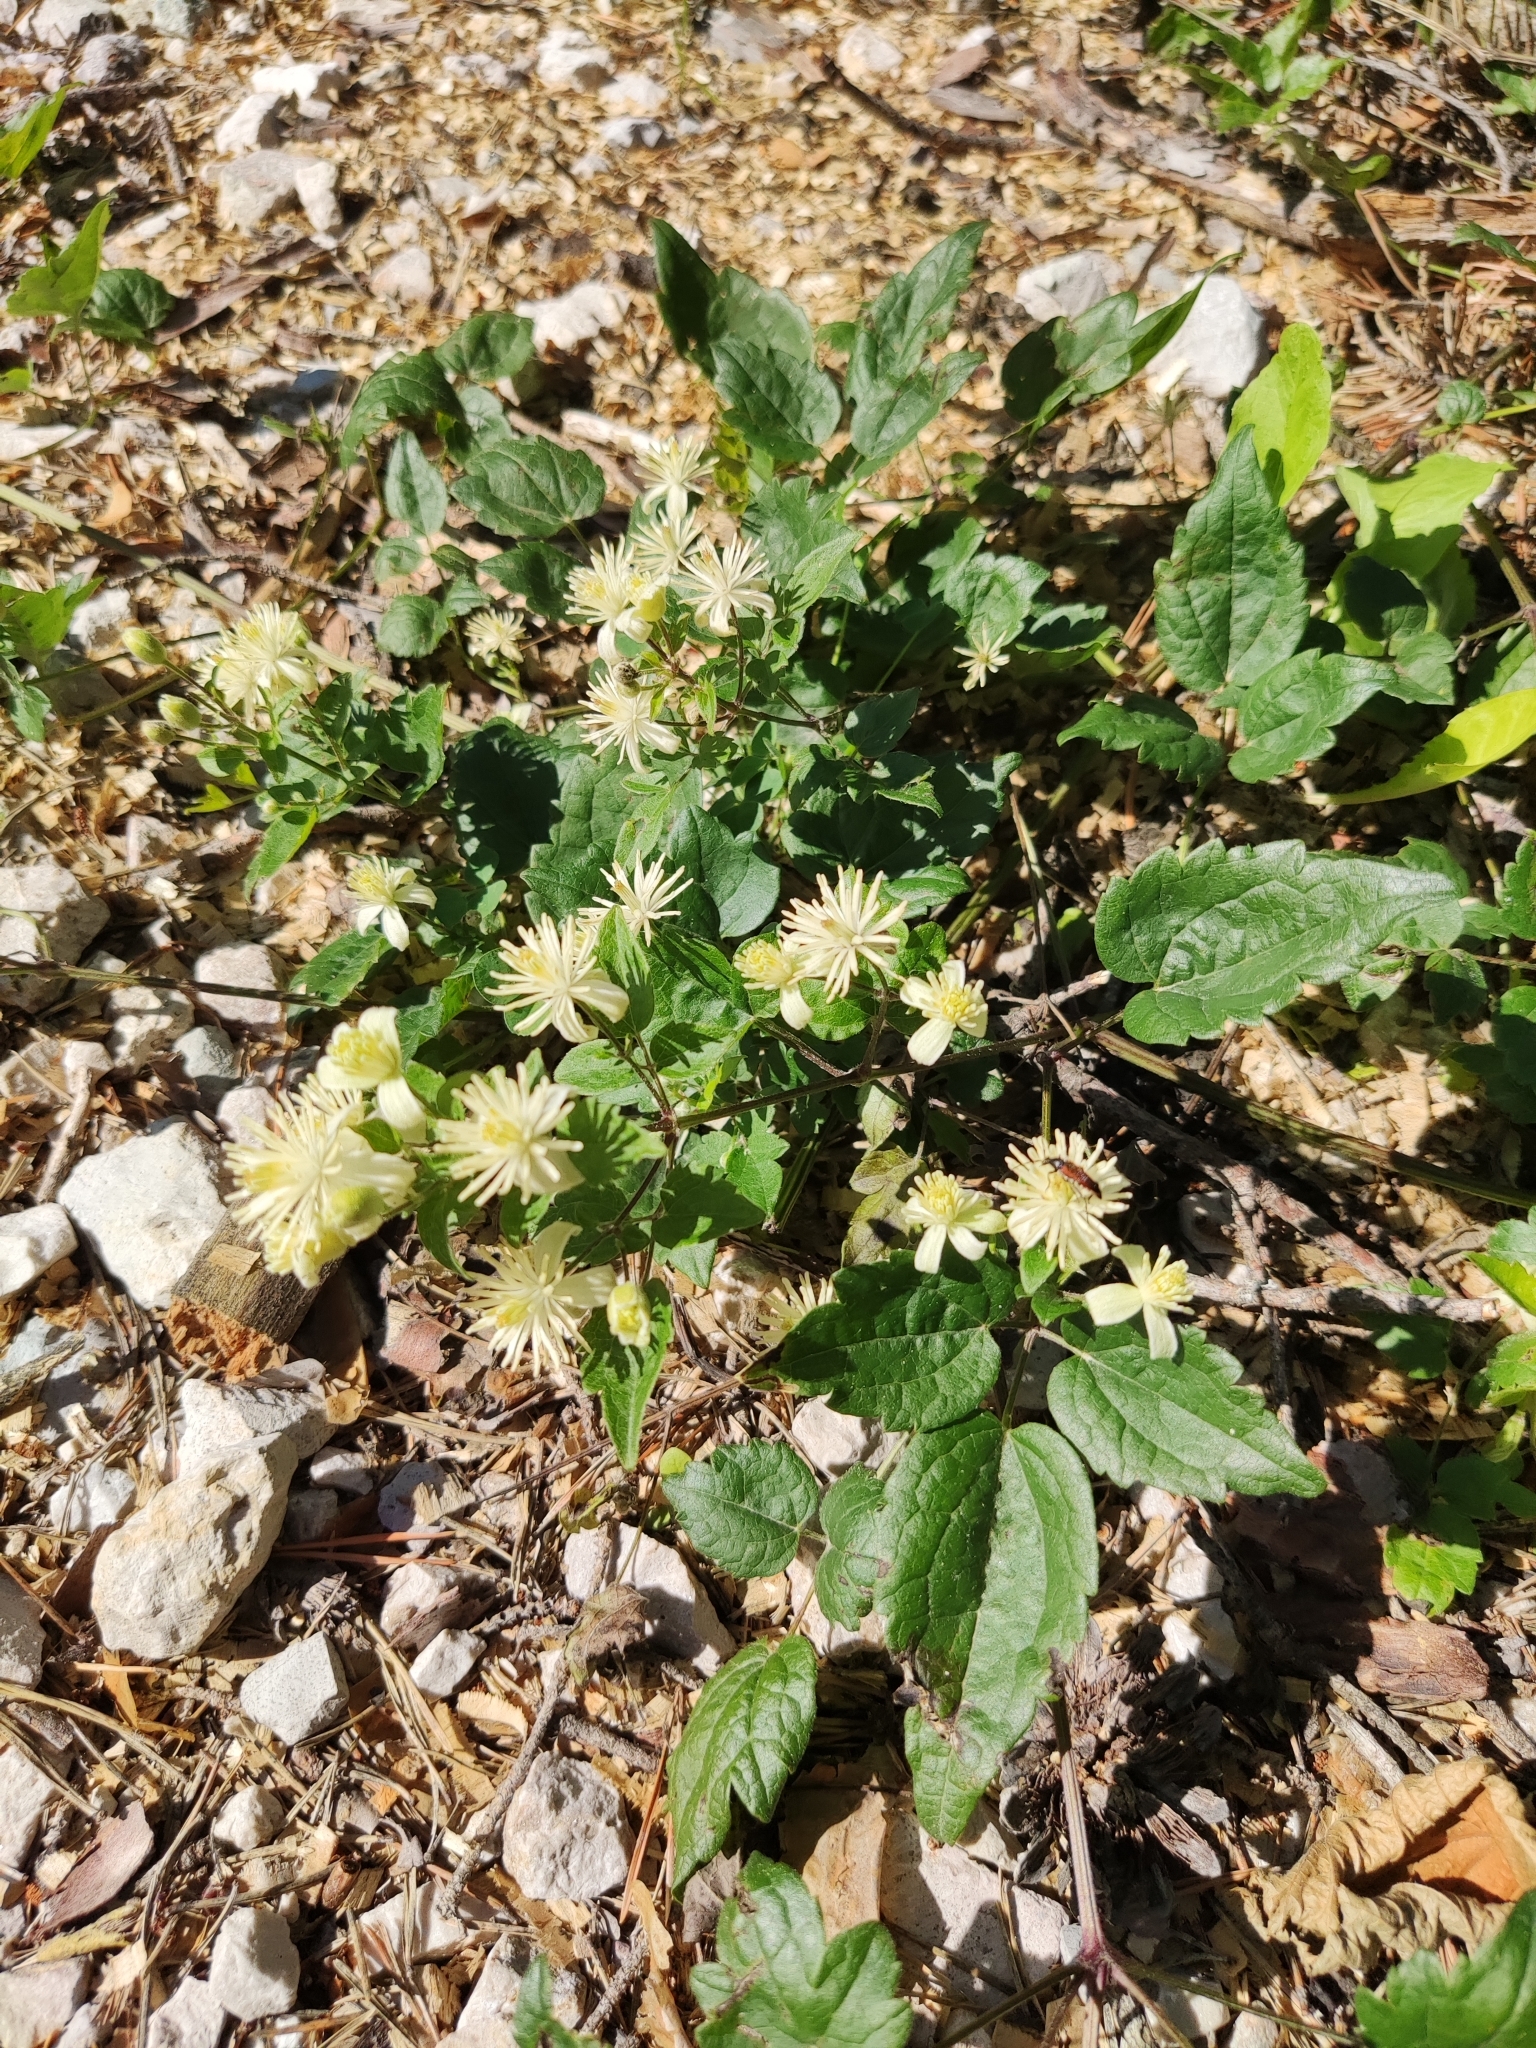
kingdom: Plantae
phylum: Tracheophyta
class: Magnoliopsida
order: Ranunculales
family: Ranunculaceae
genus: Clematis
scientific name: Clematis vitalba
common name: Evergreen clematis
